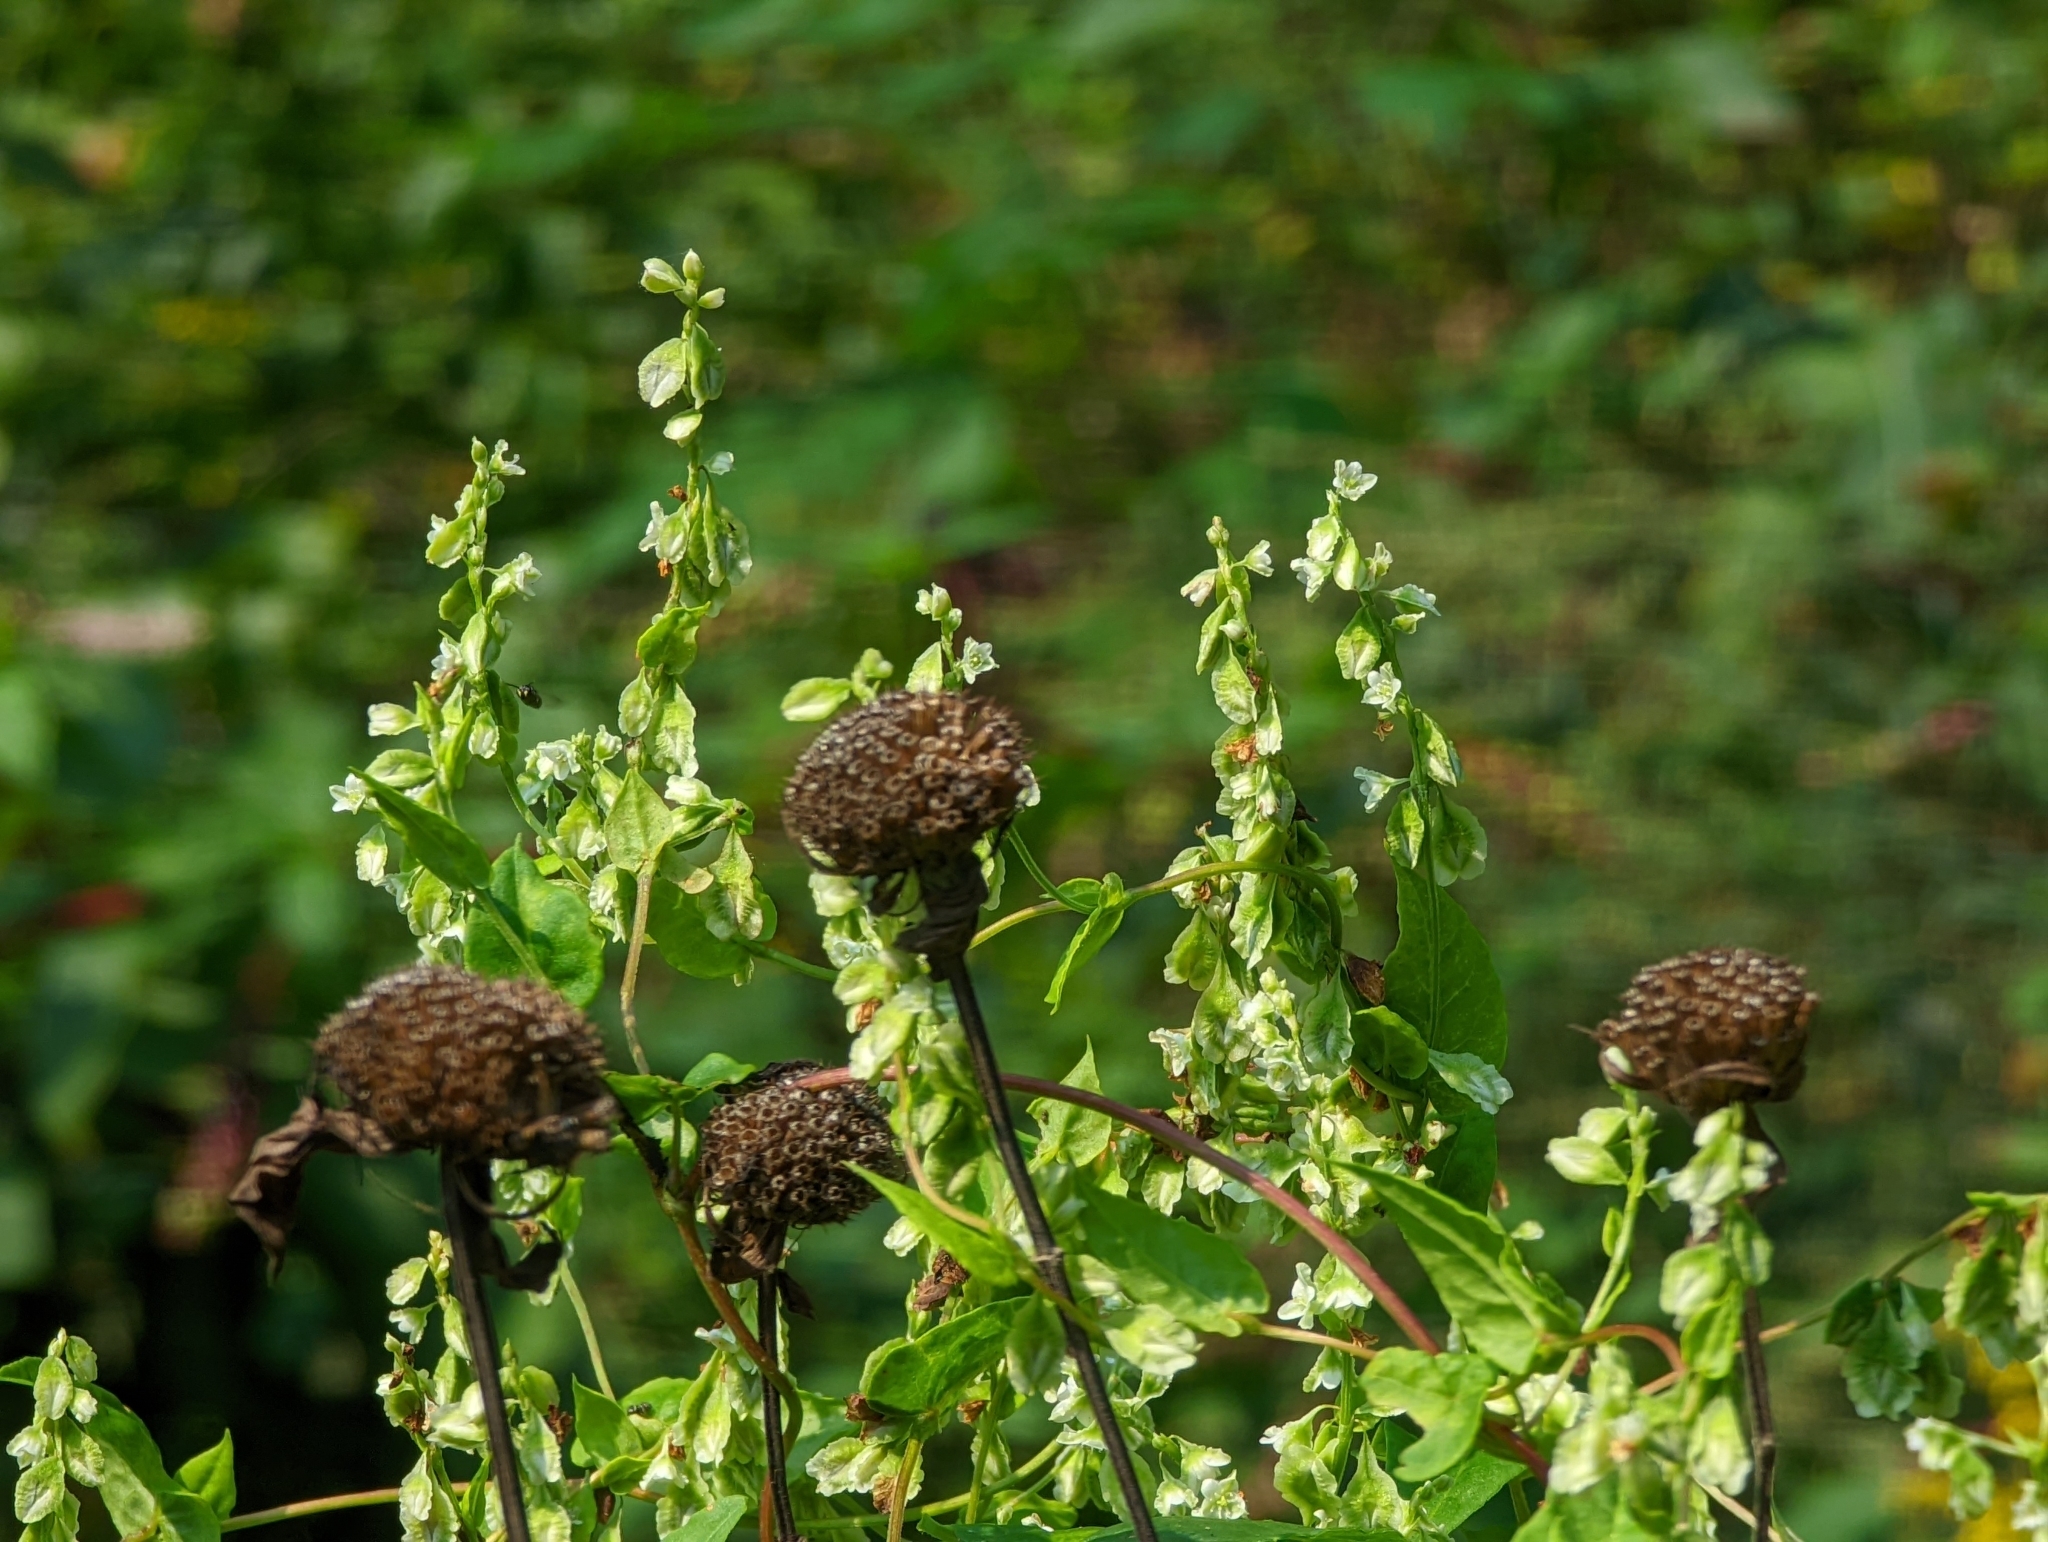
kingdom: Plantae
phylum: Tracheophyta
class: Magnoliopsida
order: Caryophyllales
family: Polygonaceae
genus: Fallopia
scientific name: Fallopia scandens
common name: Climbing false buckwheat
